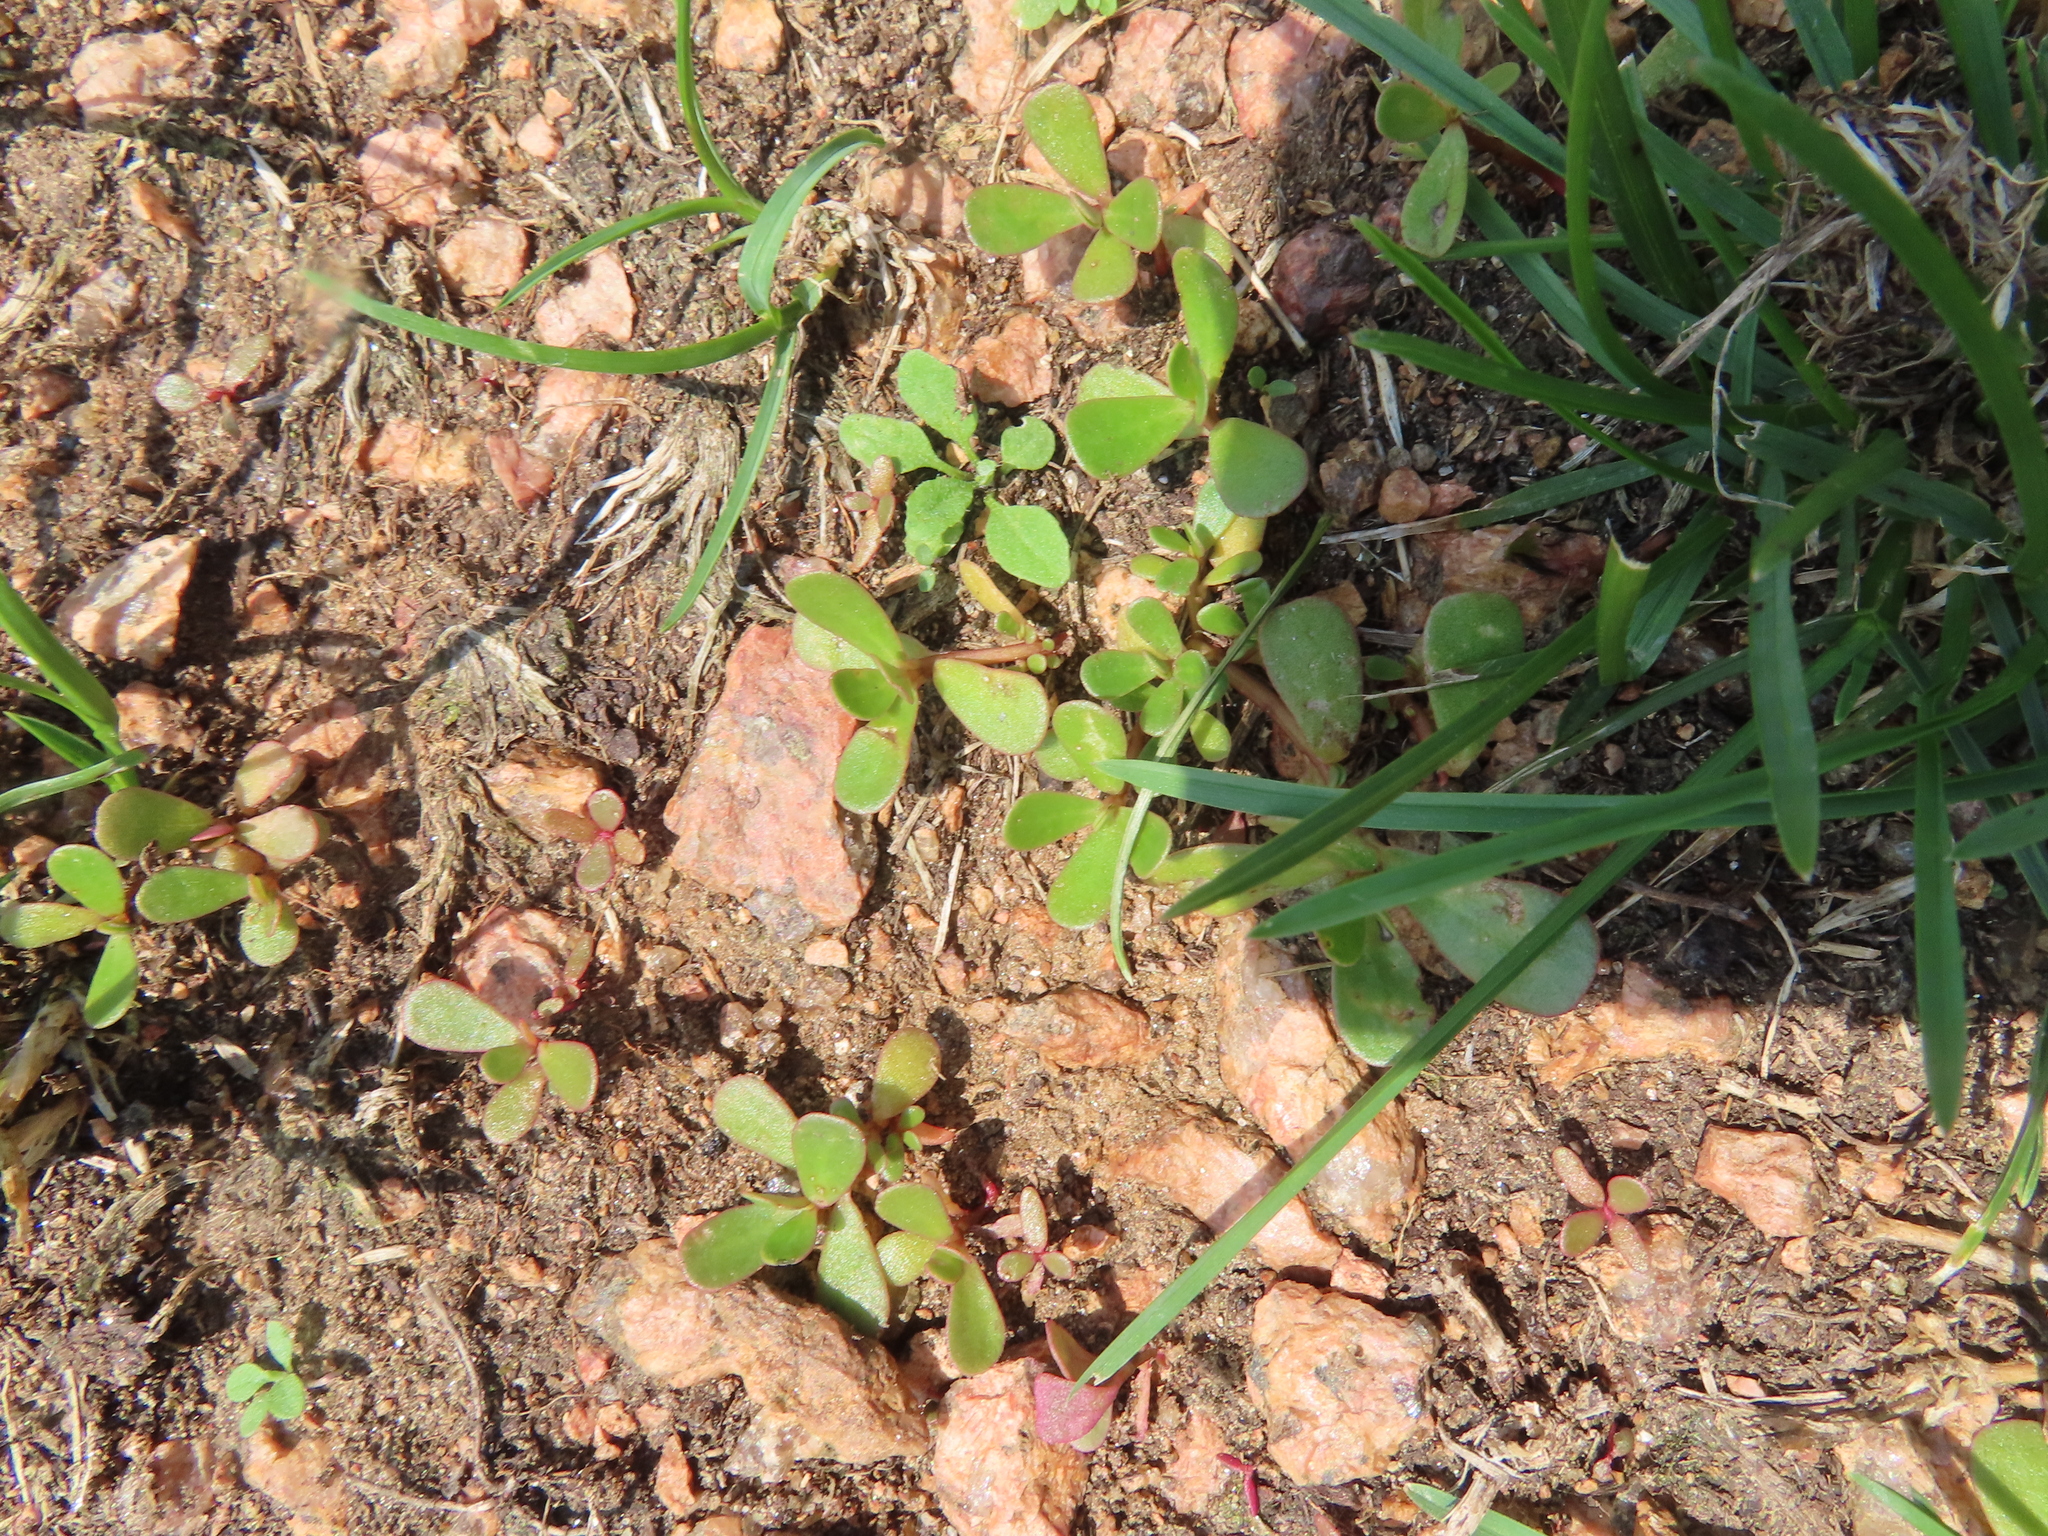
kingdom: Plantae
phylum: Tracheophyta
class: Magnoliopsida
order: Caryophyllales
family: Portulacaceae
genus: Portulaca
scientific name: Portulaca oleracea
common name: Common purslane
